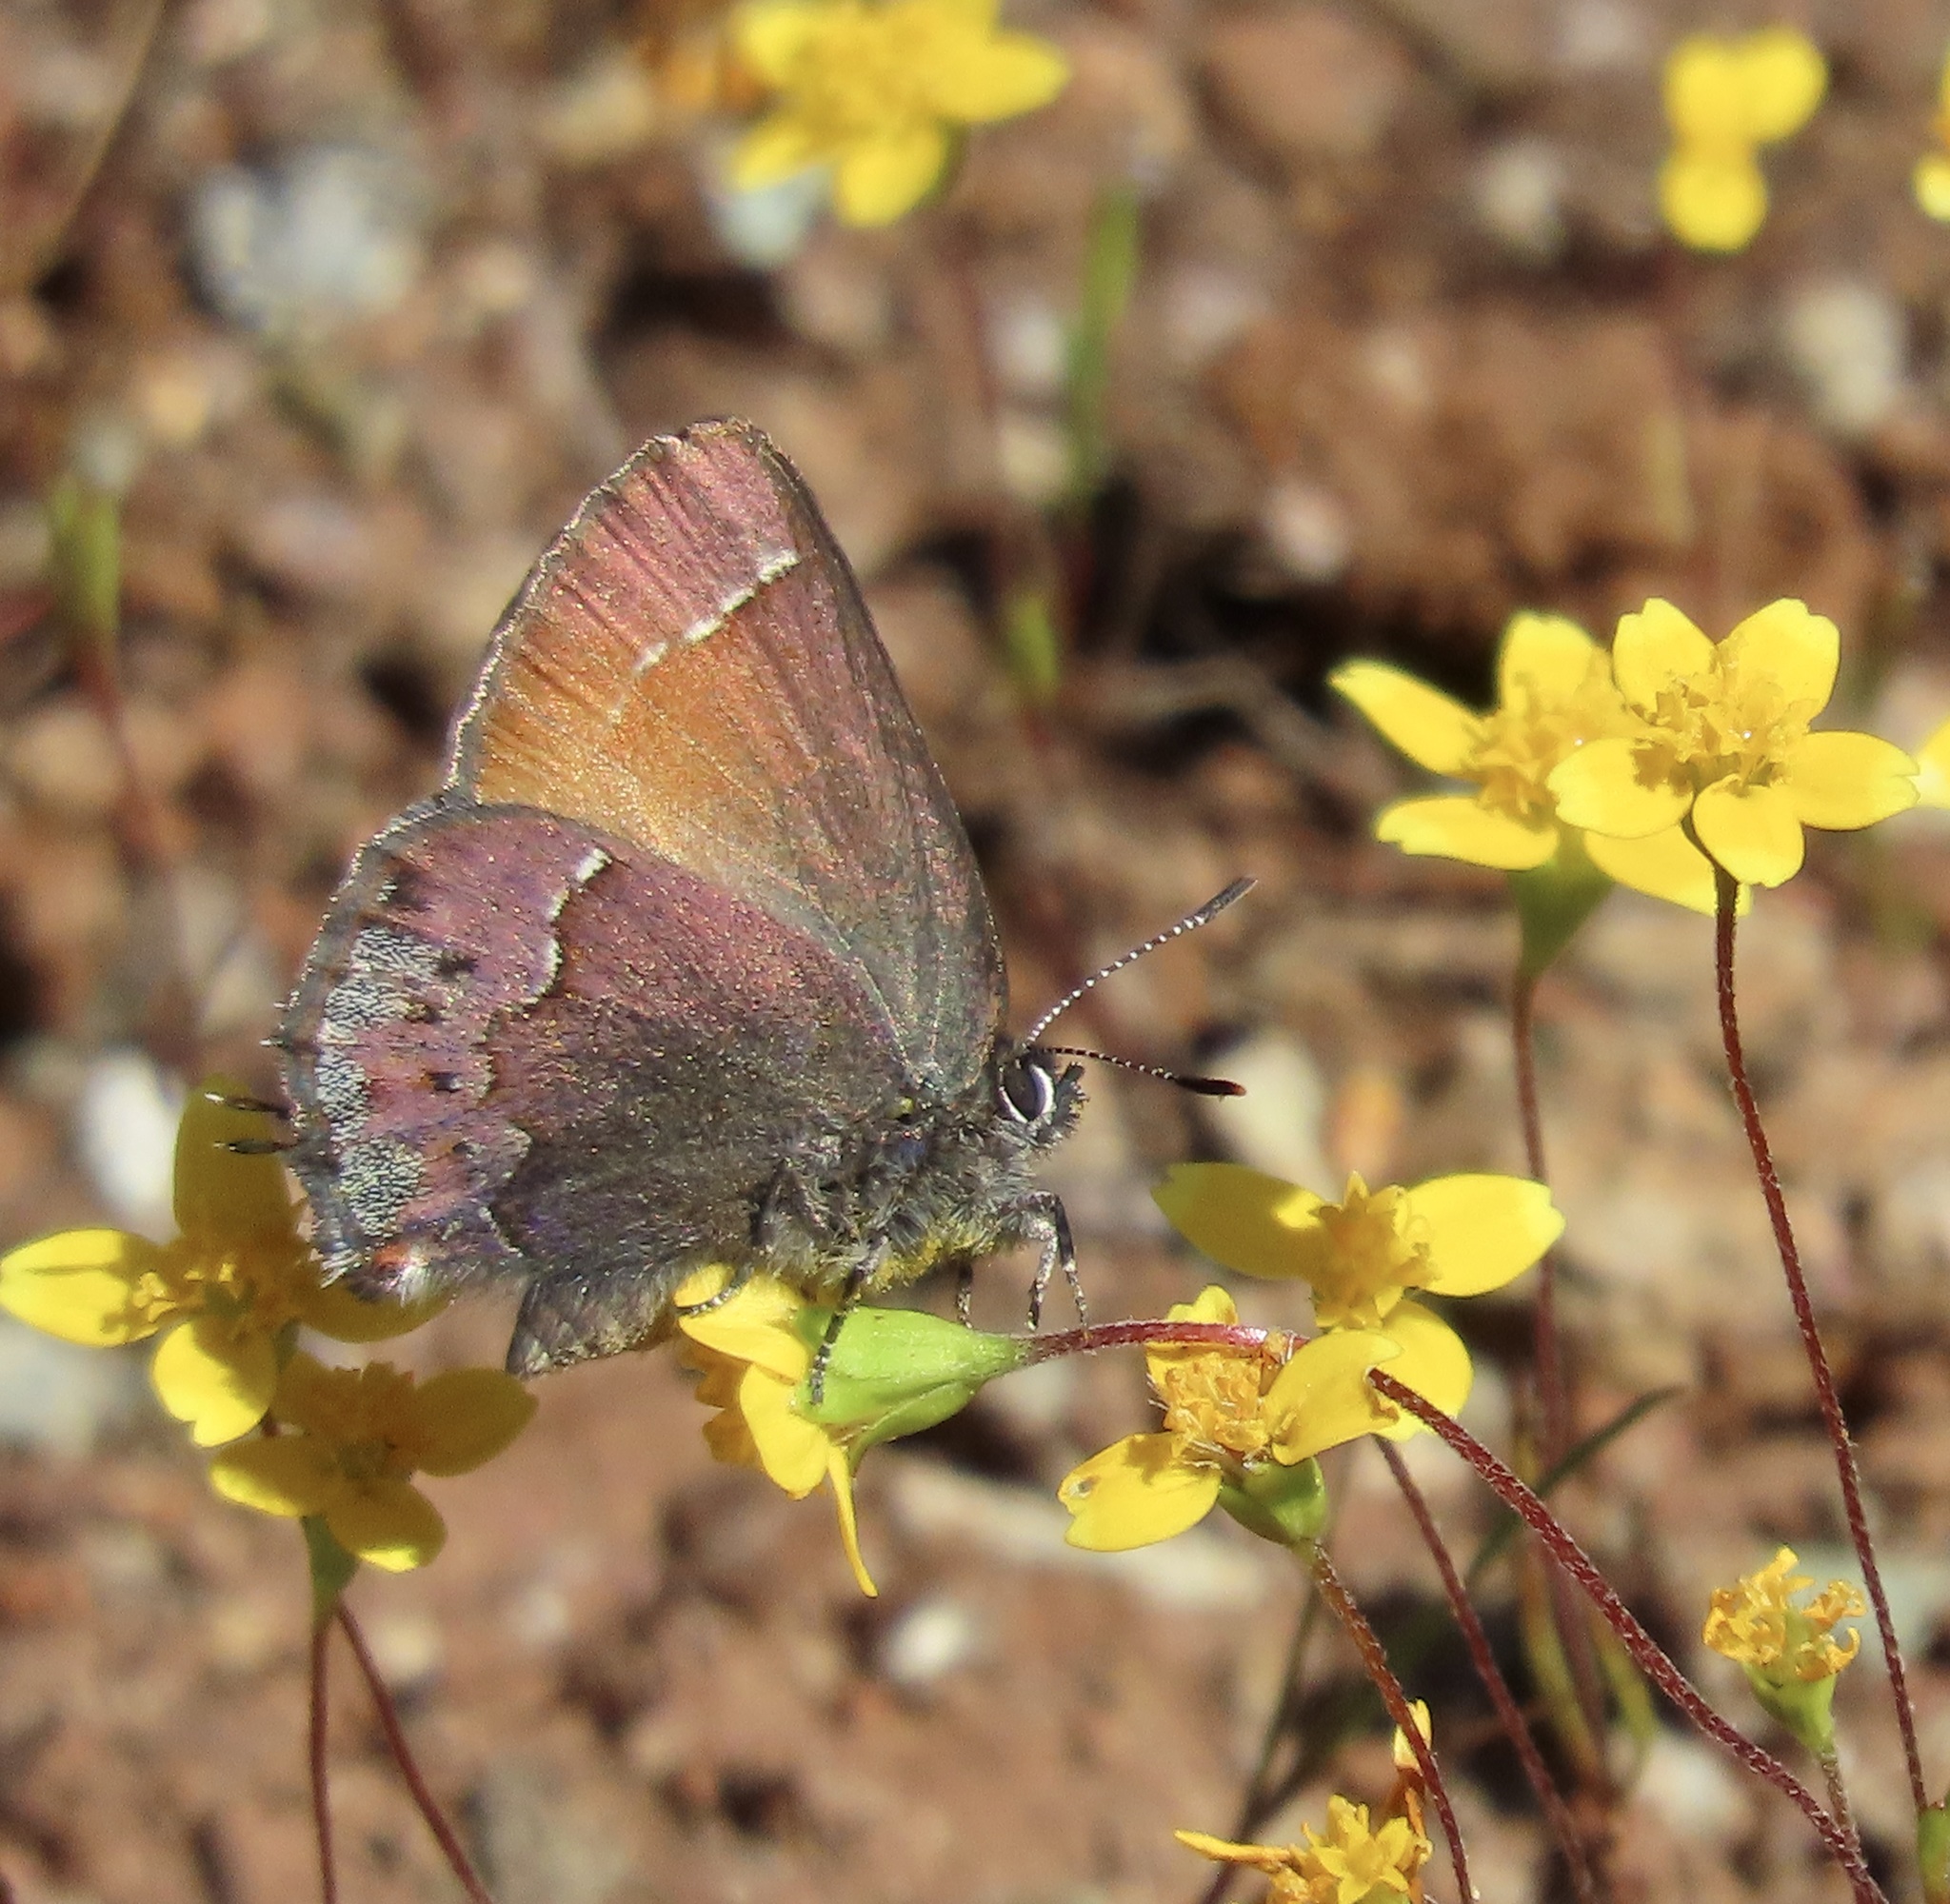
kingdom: Animalia
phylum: Arthropoda
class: Insecta
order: Lepidoptera
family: Lycaenidae
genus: Callophrys
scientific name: Callophrys muiri
